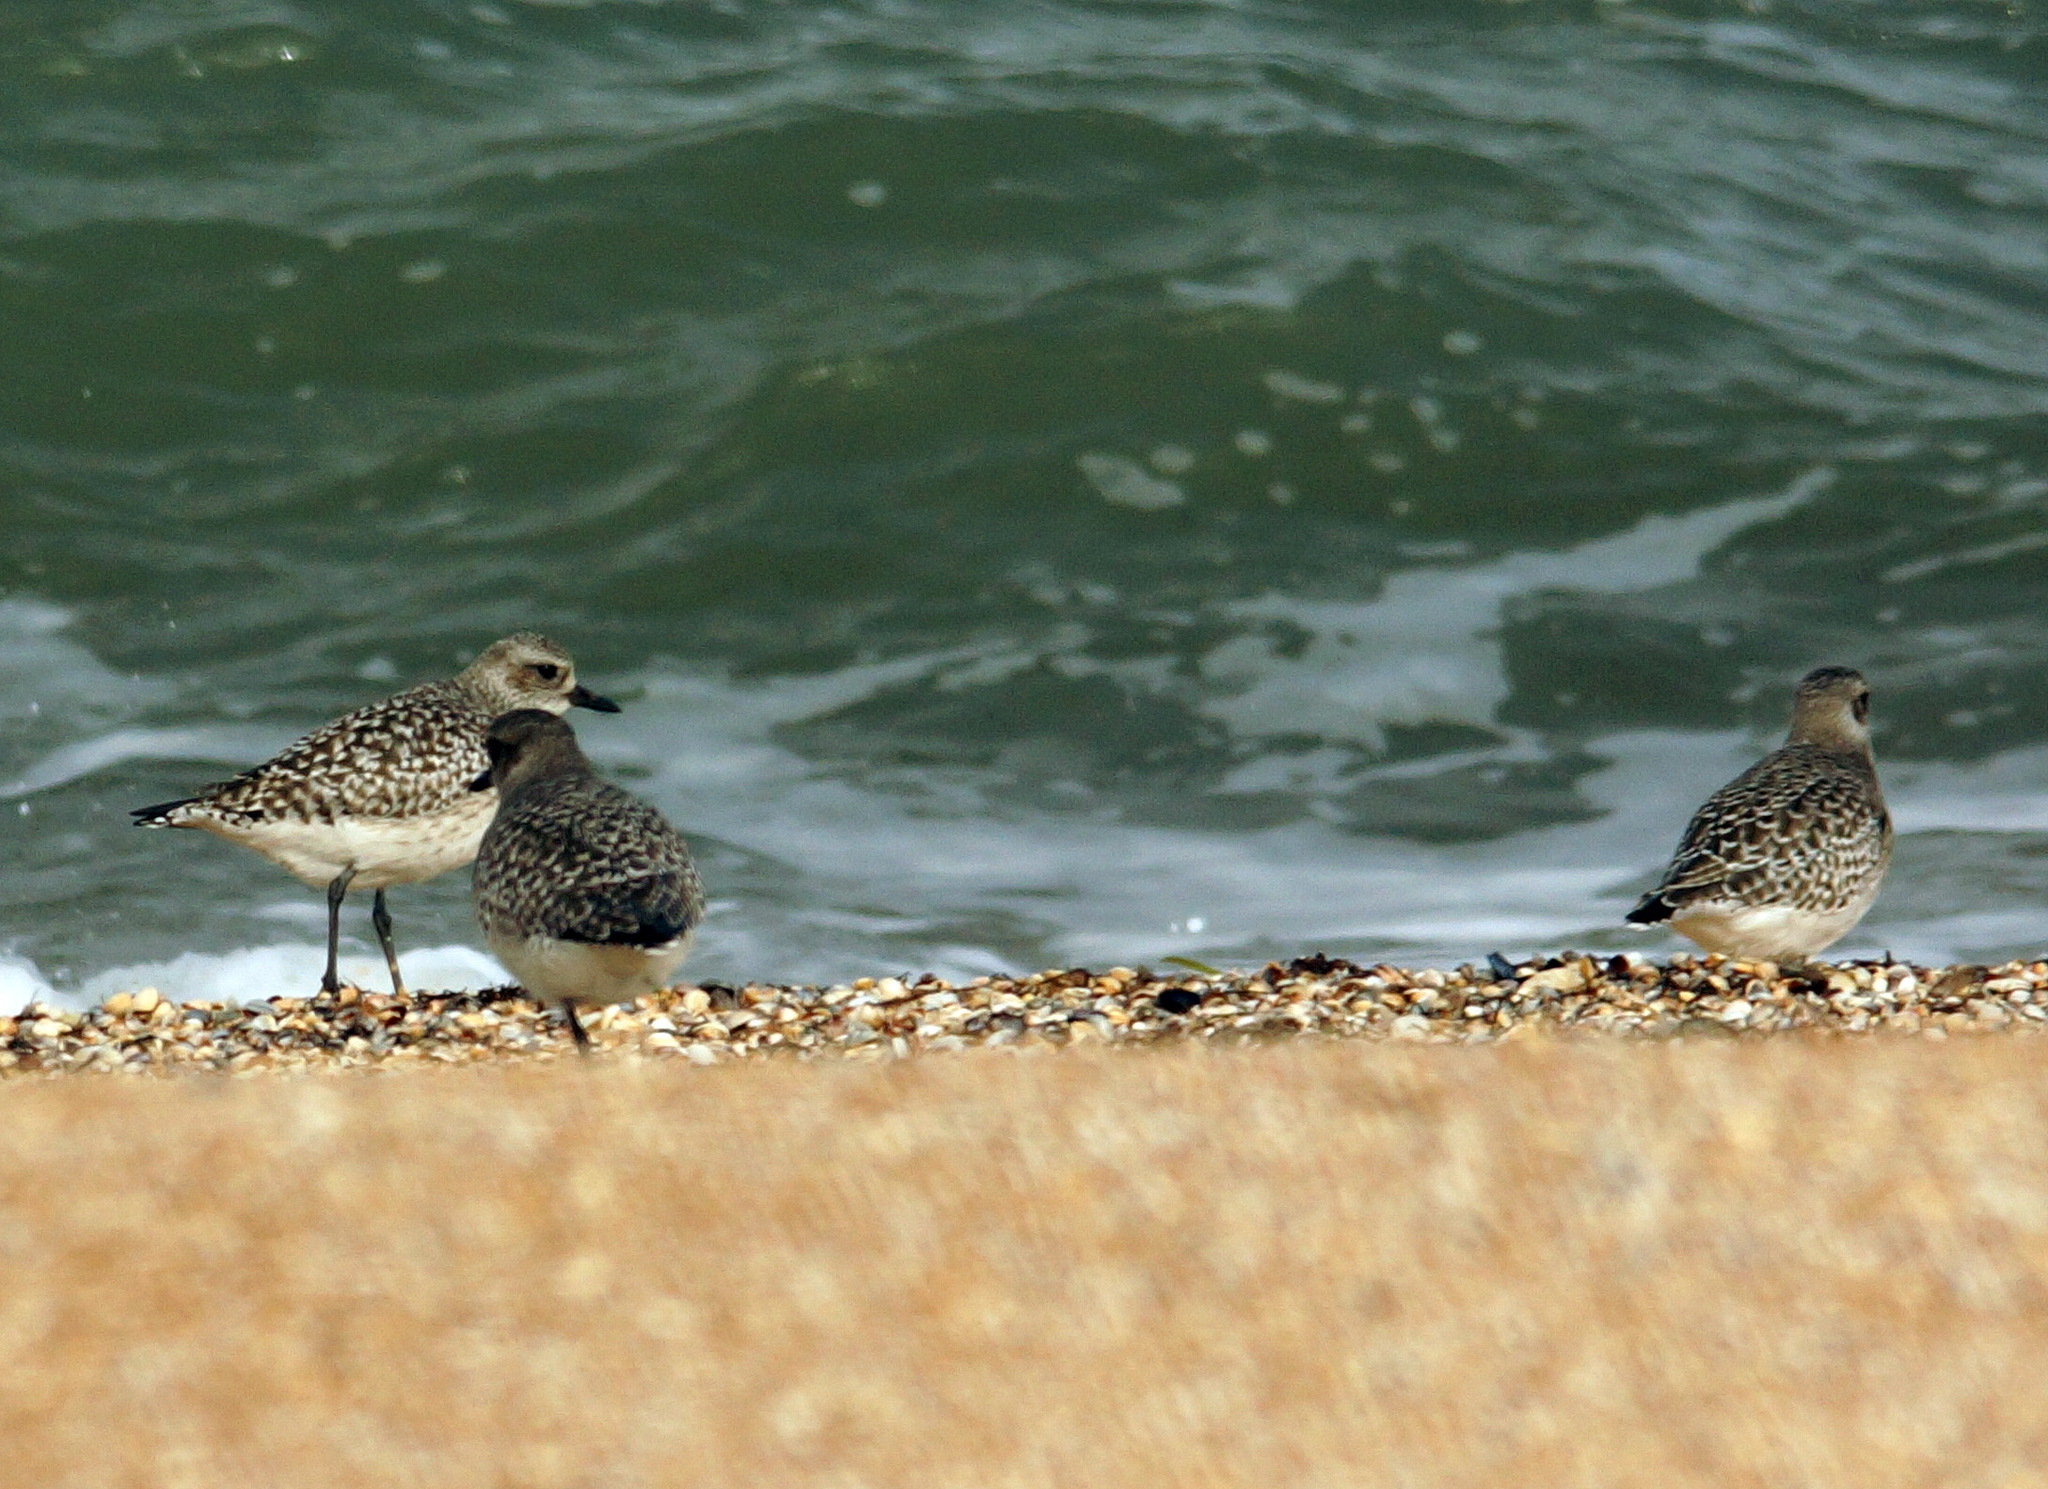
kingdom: Animalia
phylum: Chordata
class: Aves
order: Charadriiformes
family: Charadriidae
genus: Pluvialis
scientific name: Pluvialis squatarola
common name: Grey plover
